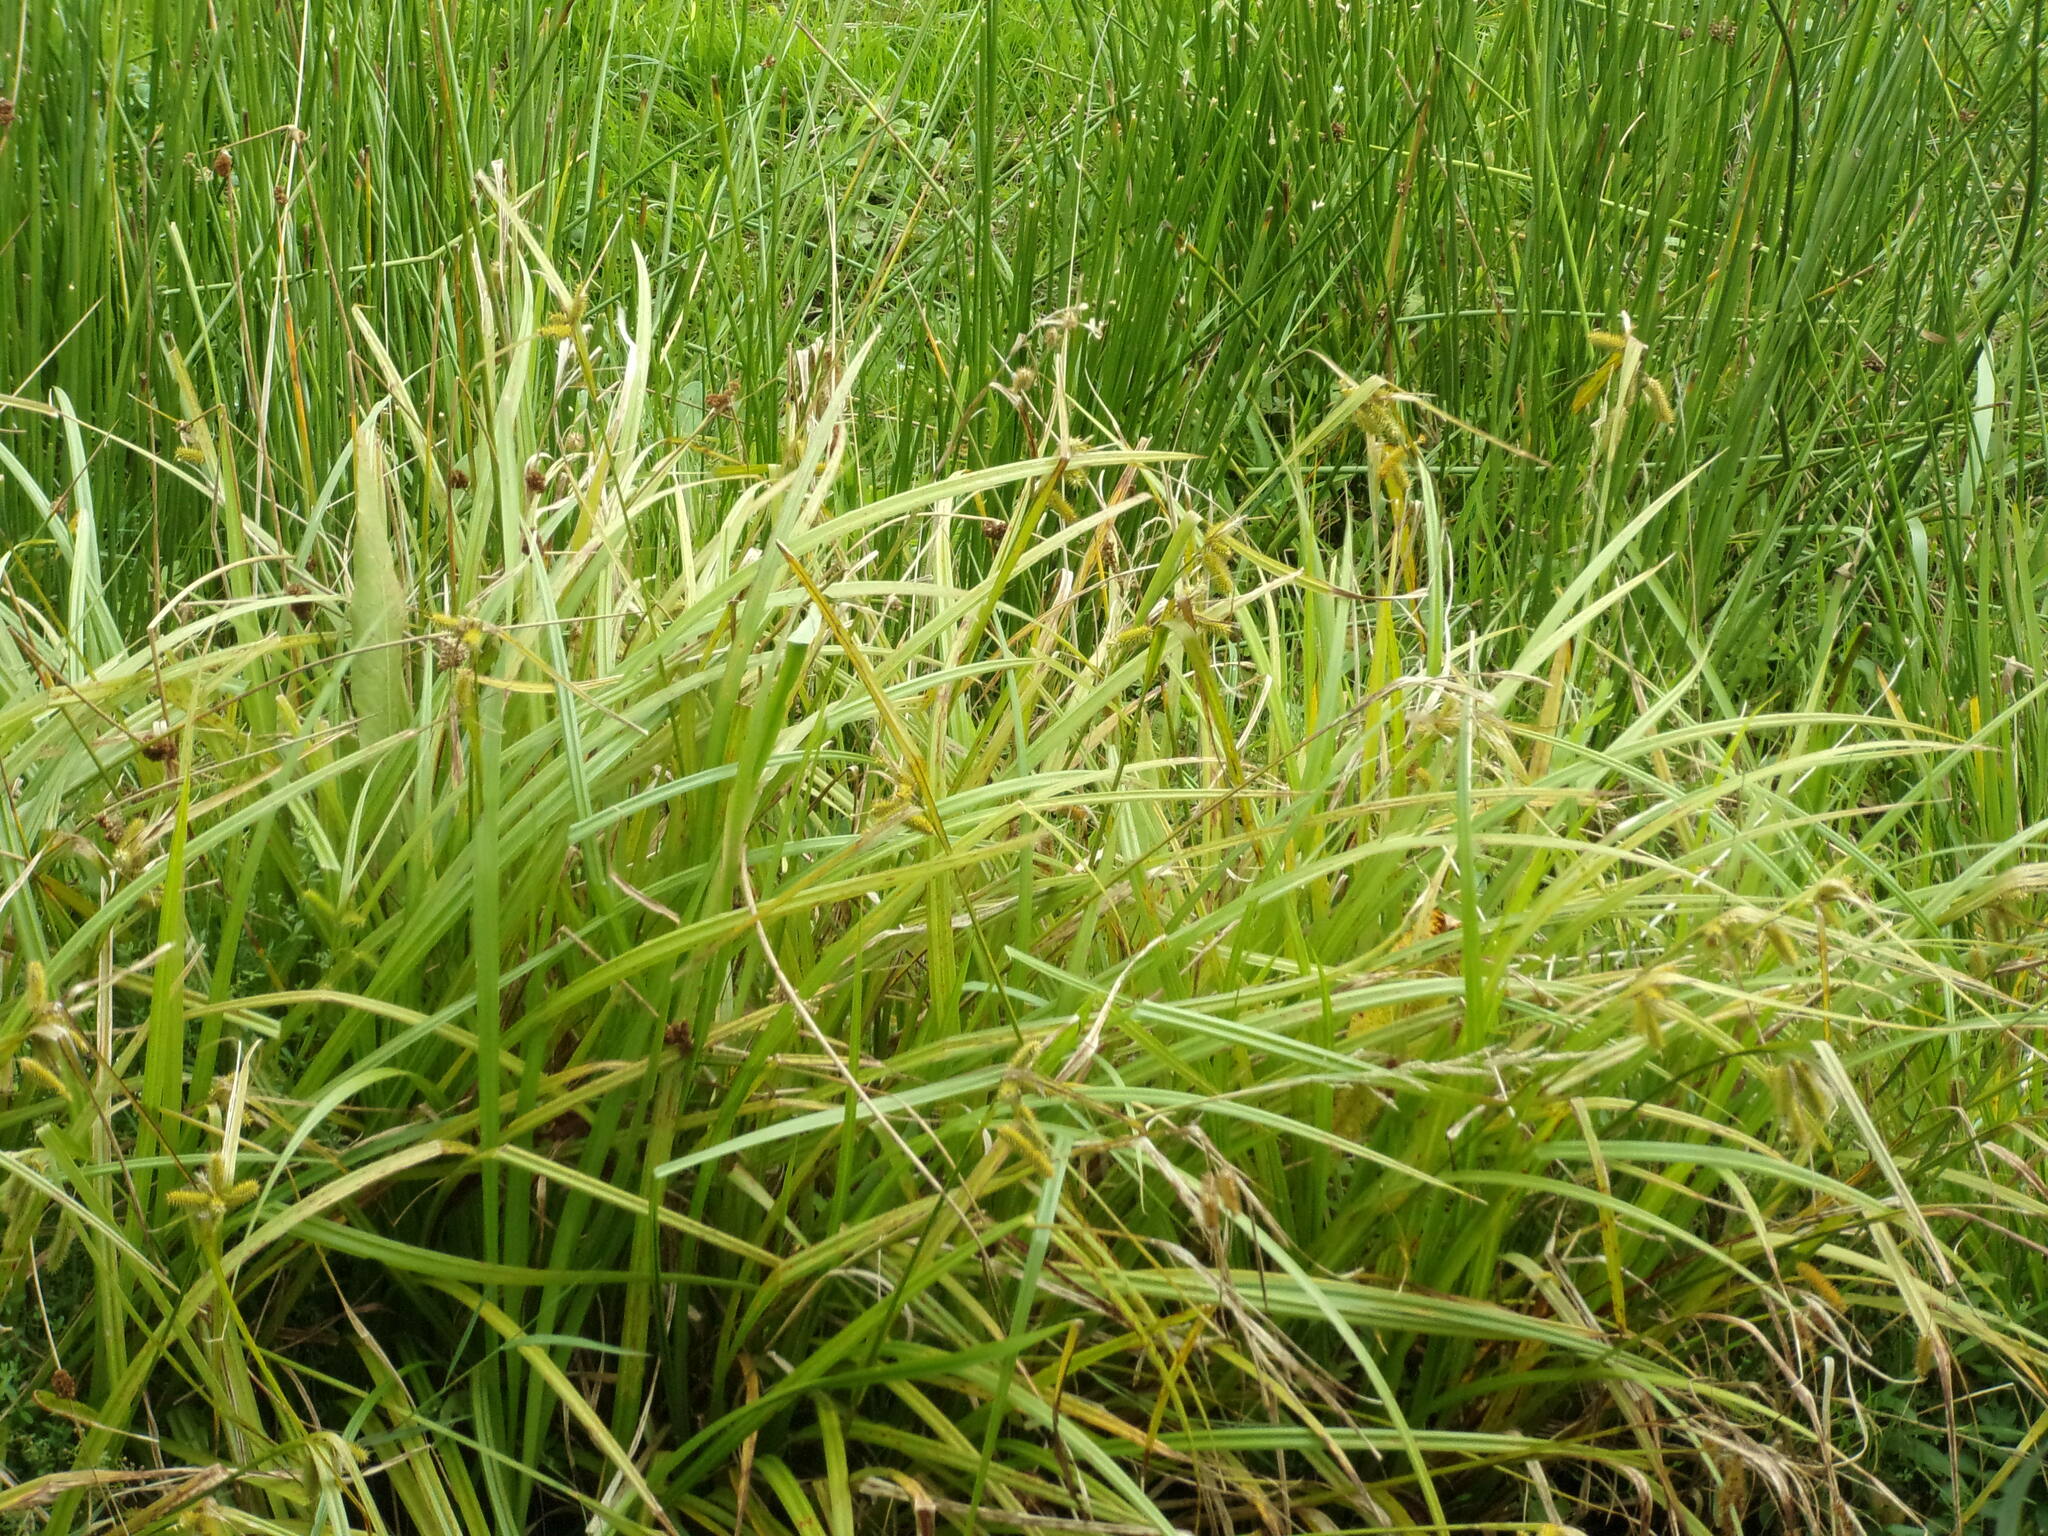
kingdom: Plantae
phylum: Tracheophyta
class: Liliopsida
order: Poales
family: Cyperaceae
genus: Carex
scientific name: Carex pseudocyperus
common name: Cyperus sedge
